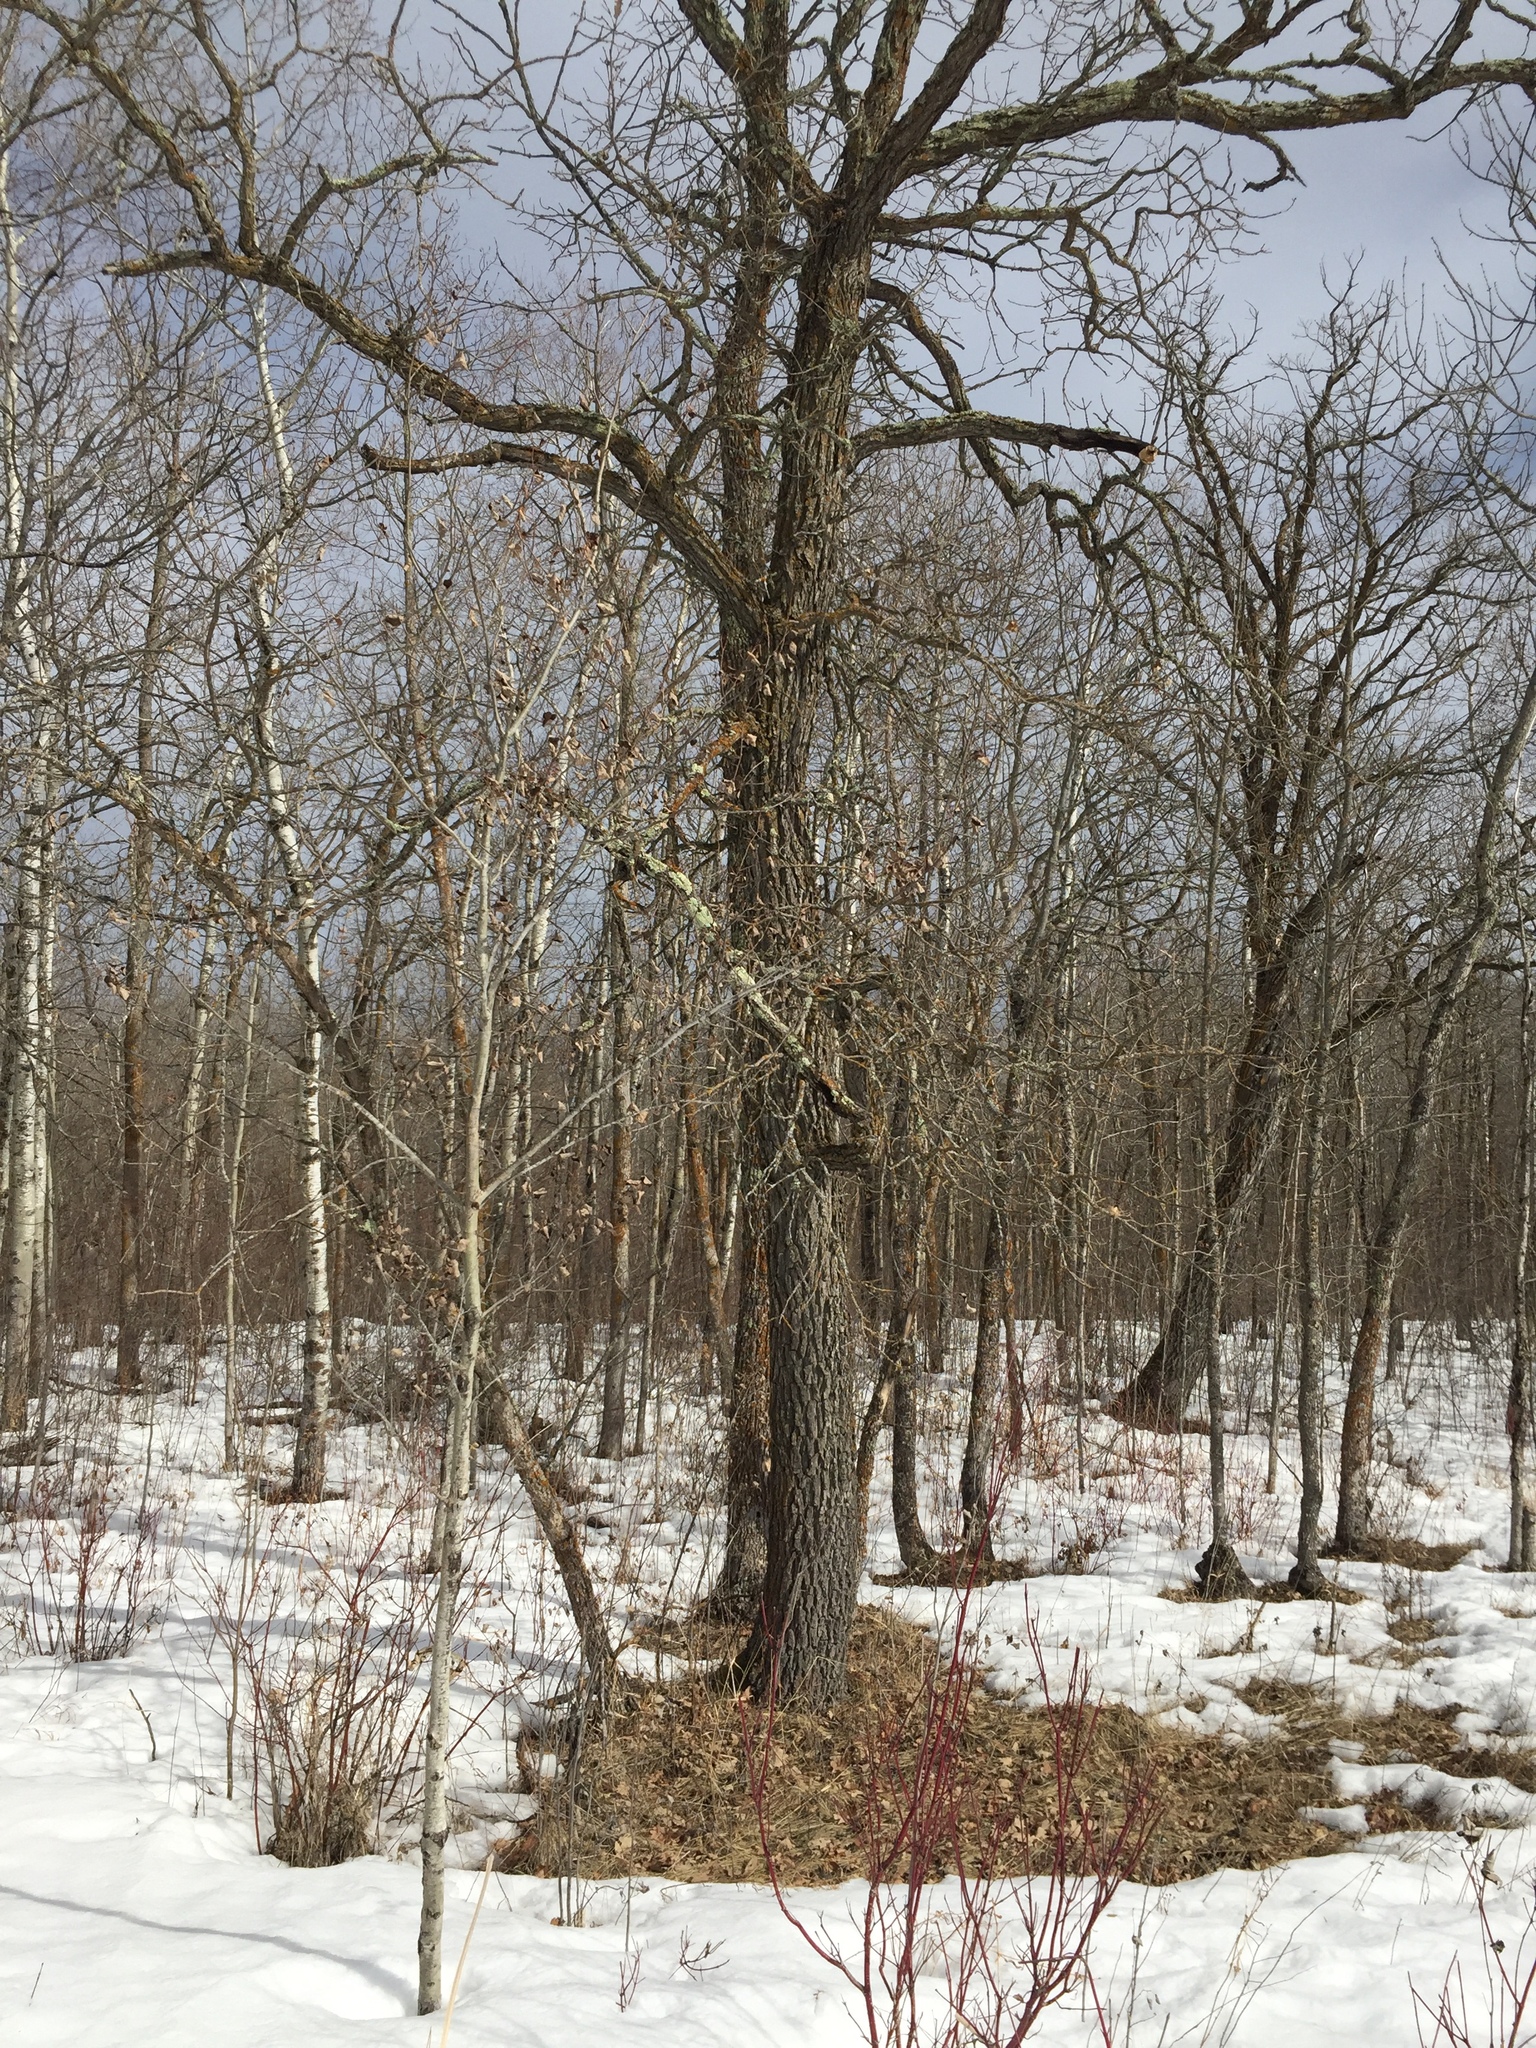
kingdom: Plantae
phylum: Tracheophyta
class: Magnoliopsida
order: Fagales
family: Fagaceae
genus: Quercus
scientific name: Quercus macrocarpa
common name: Bur oak
